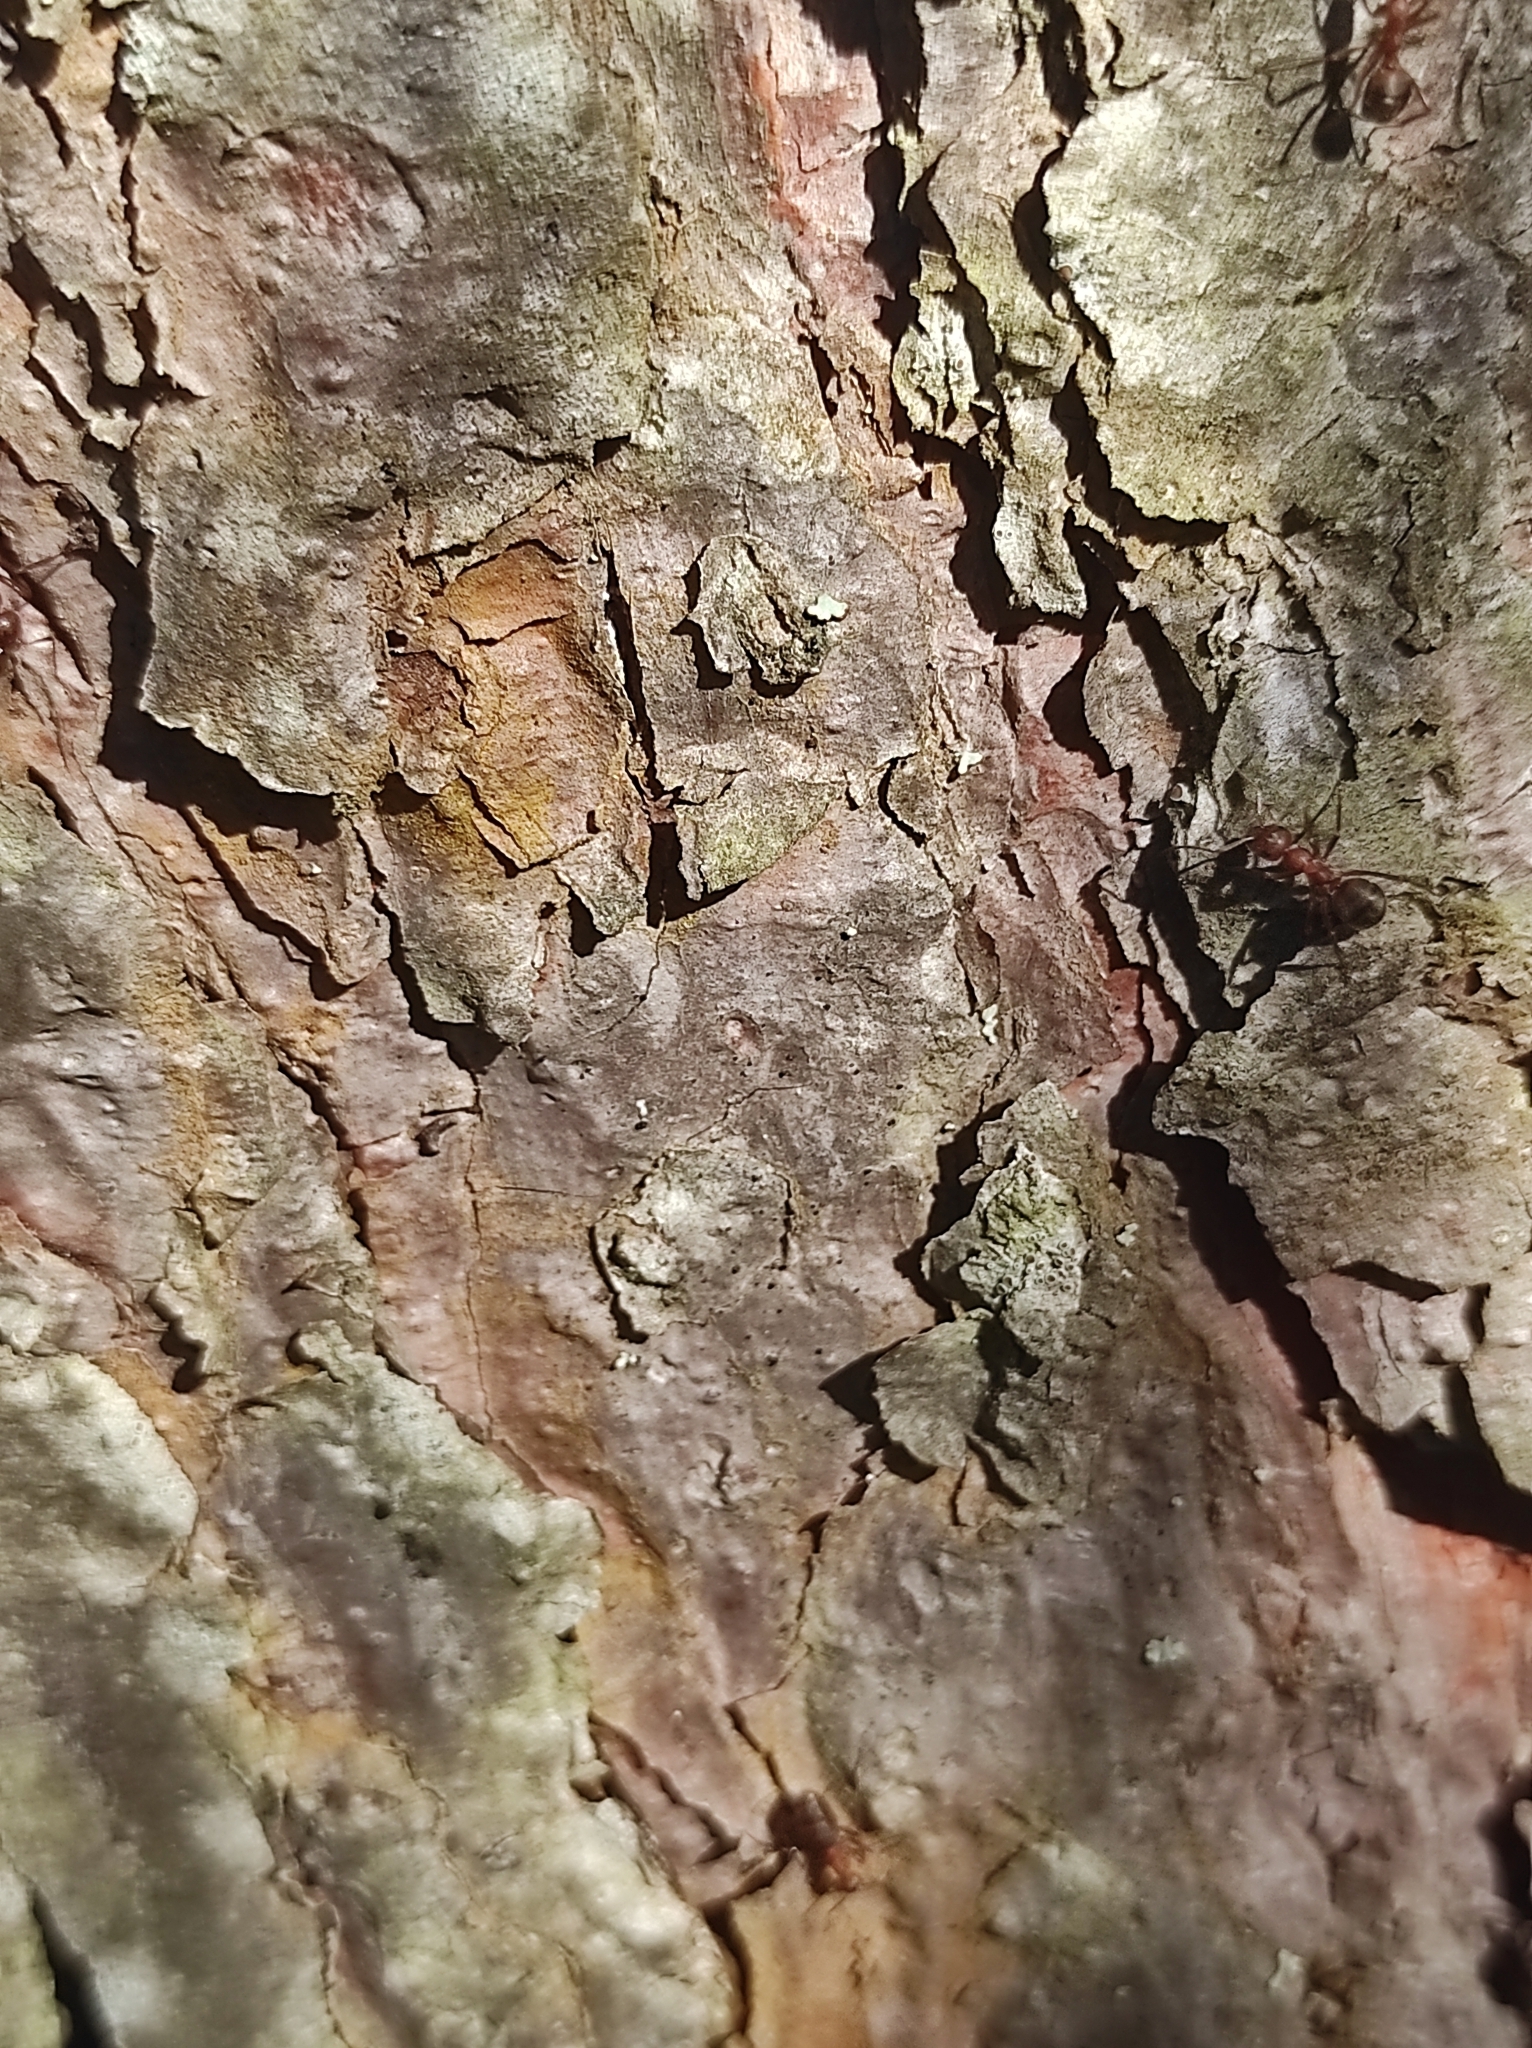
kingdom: Animalia
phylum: Arthropoda
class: Insecta
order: Hymenoptera
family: Formicidae
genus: Formica
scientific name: Formica truncorum
